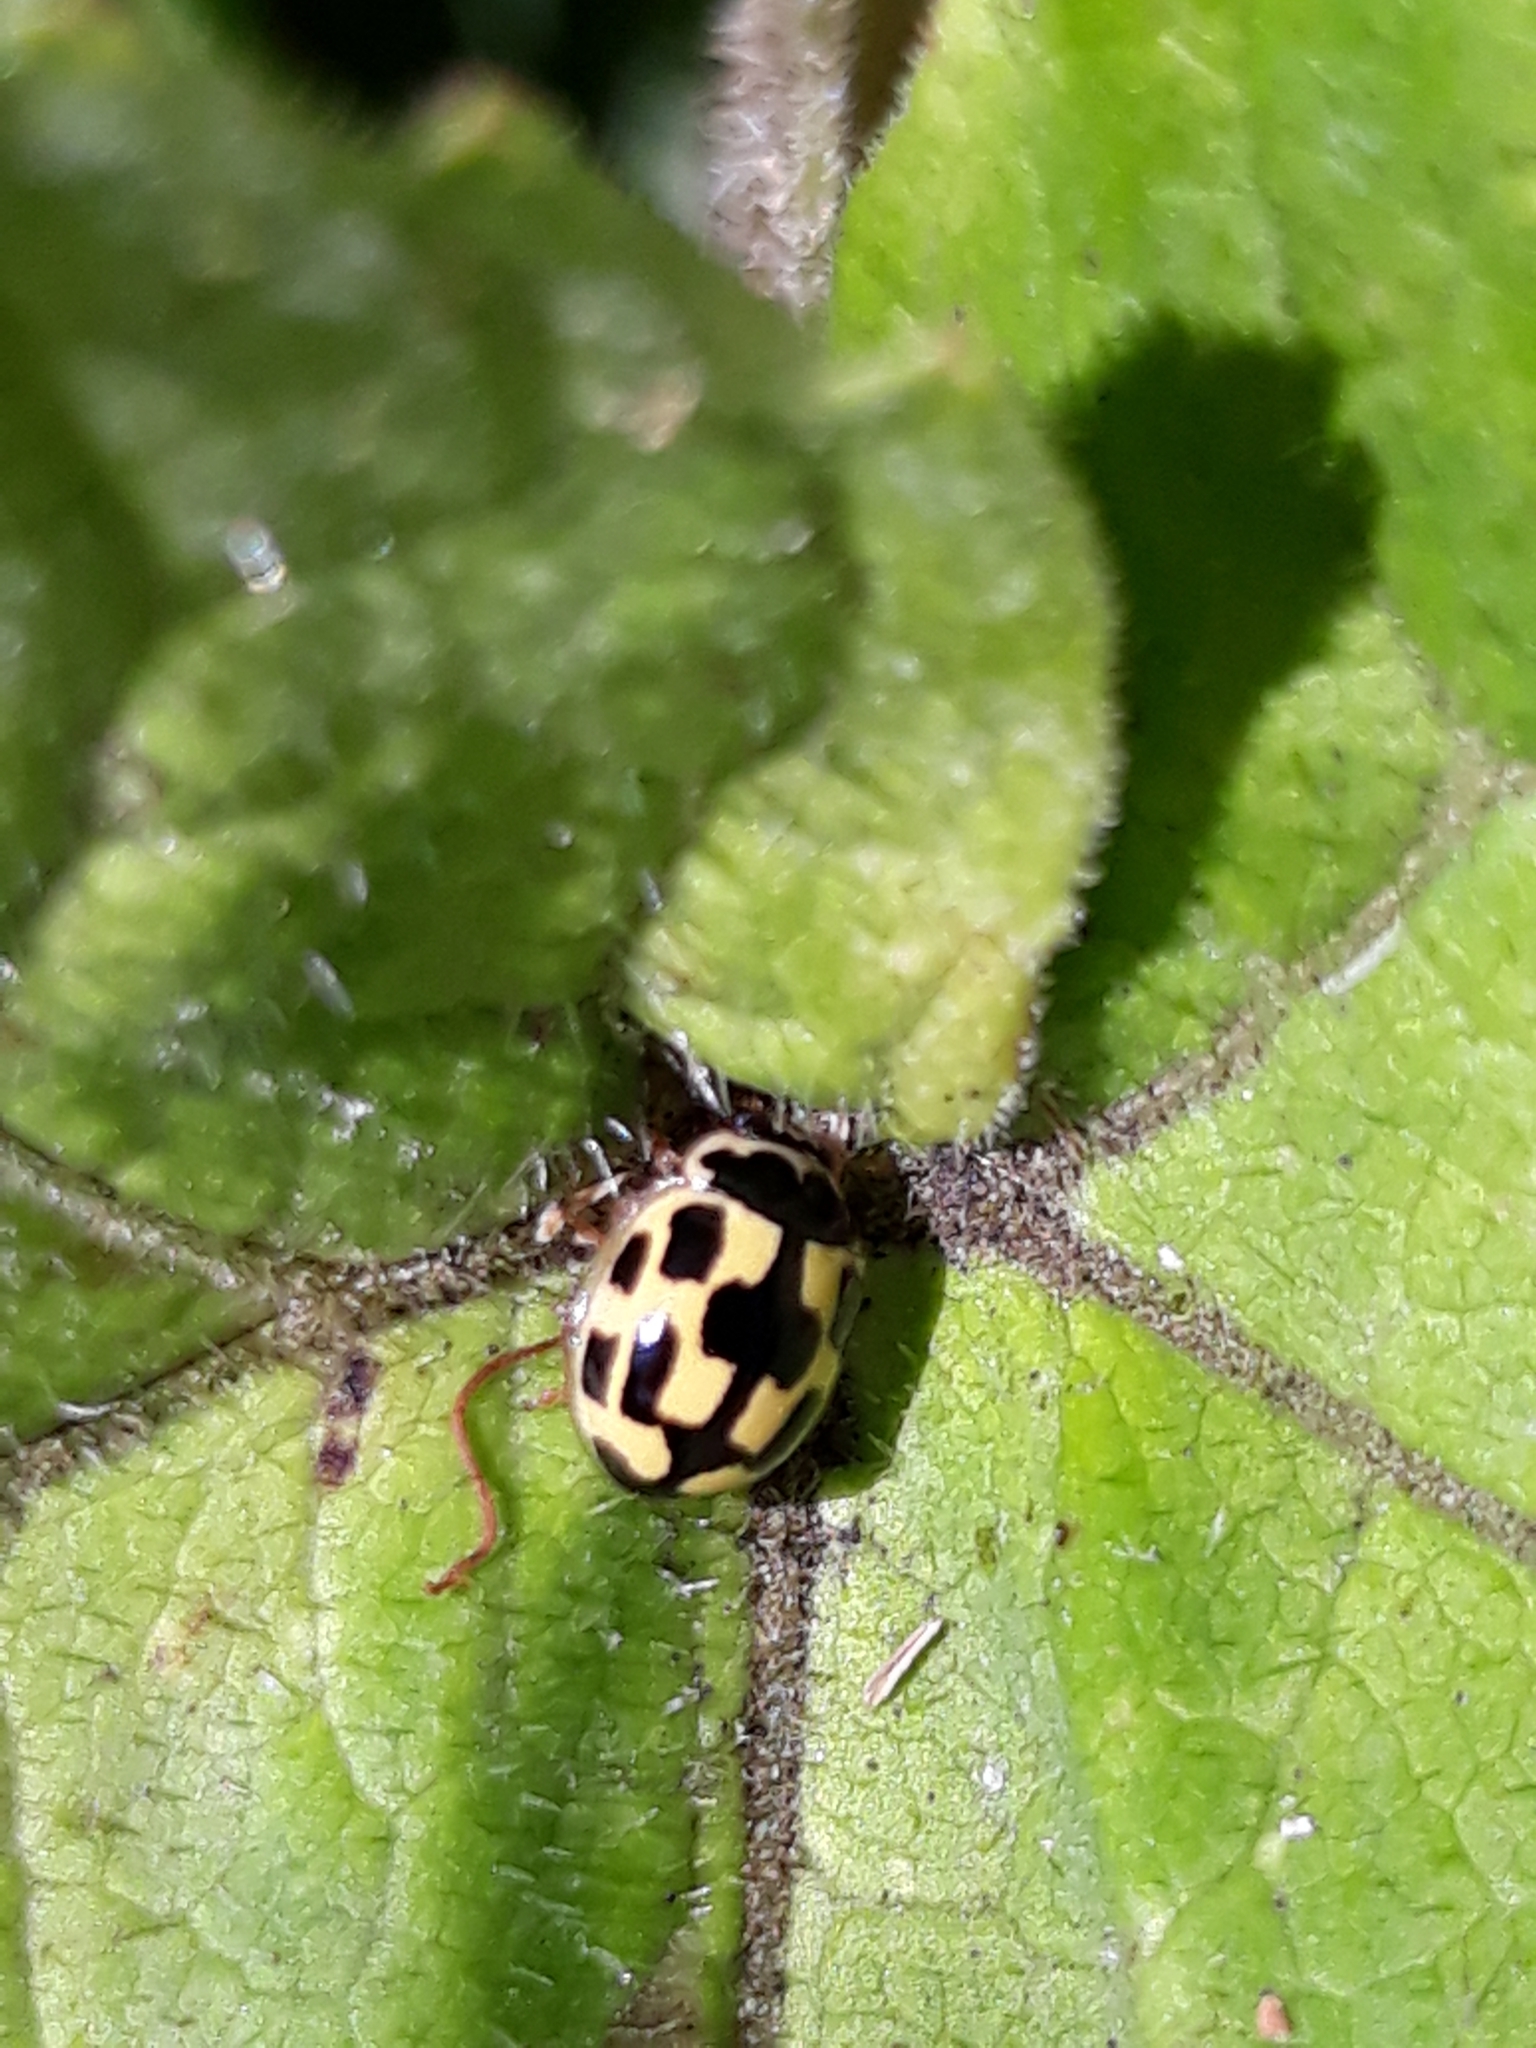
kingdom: Animalia
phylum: Arthropoda
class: Insecta
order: Coleoptera
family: Coccinellidae
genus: Propylaea
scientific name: Propylaea quatuordecimpunctata
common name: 14-spotted ladybird beetle
